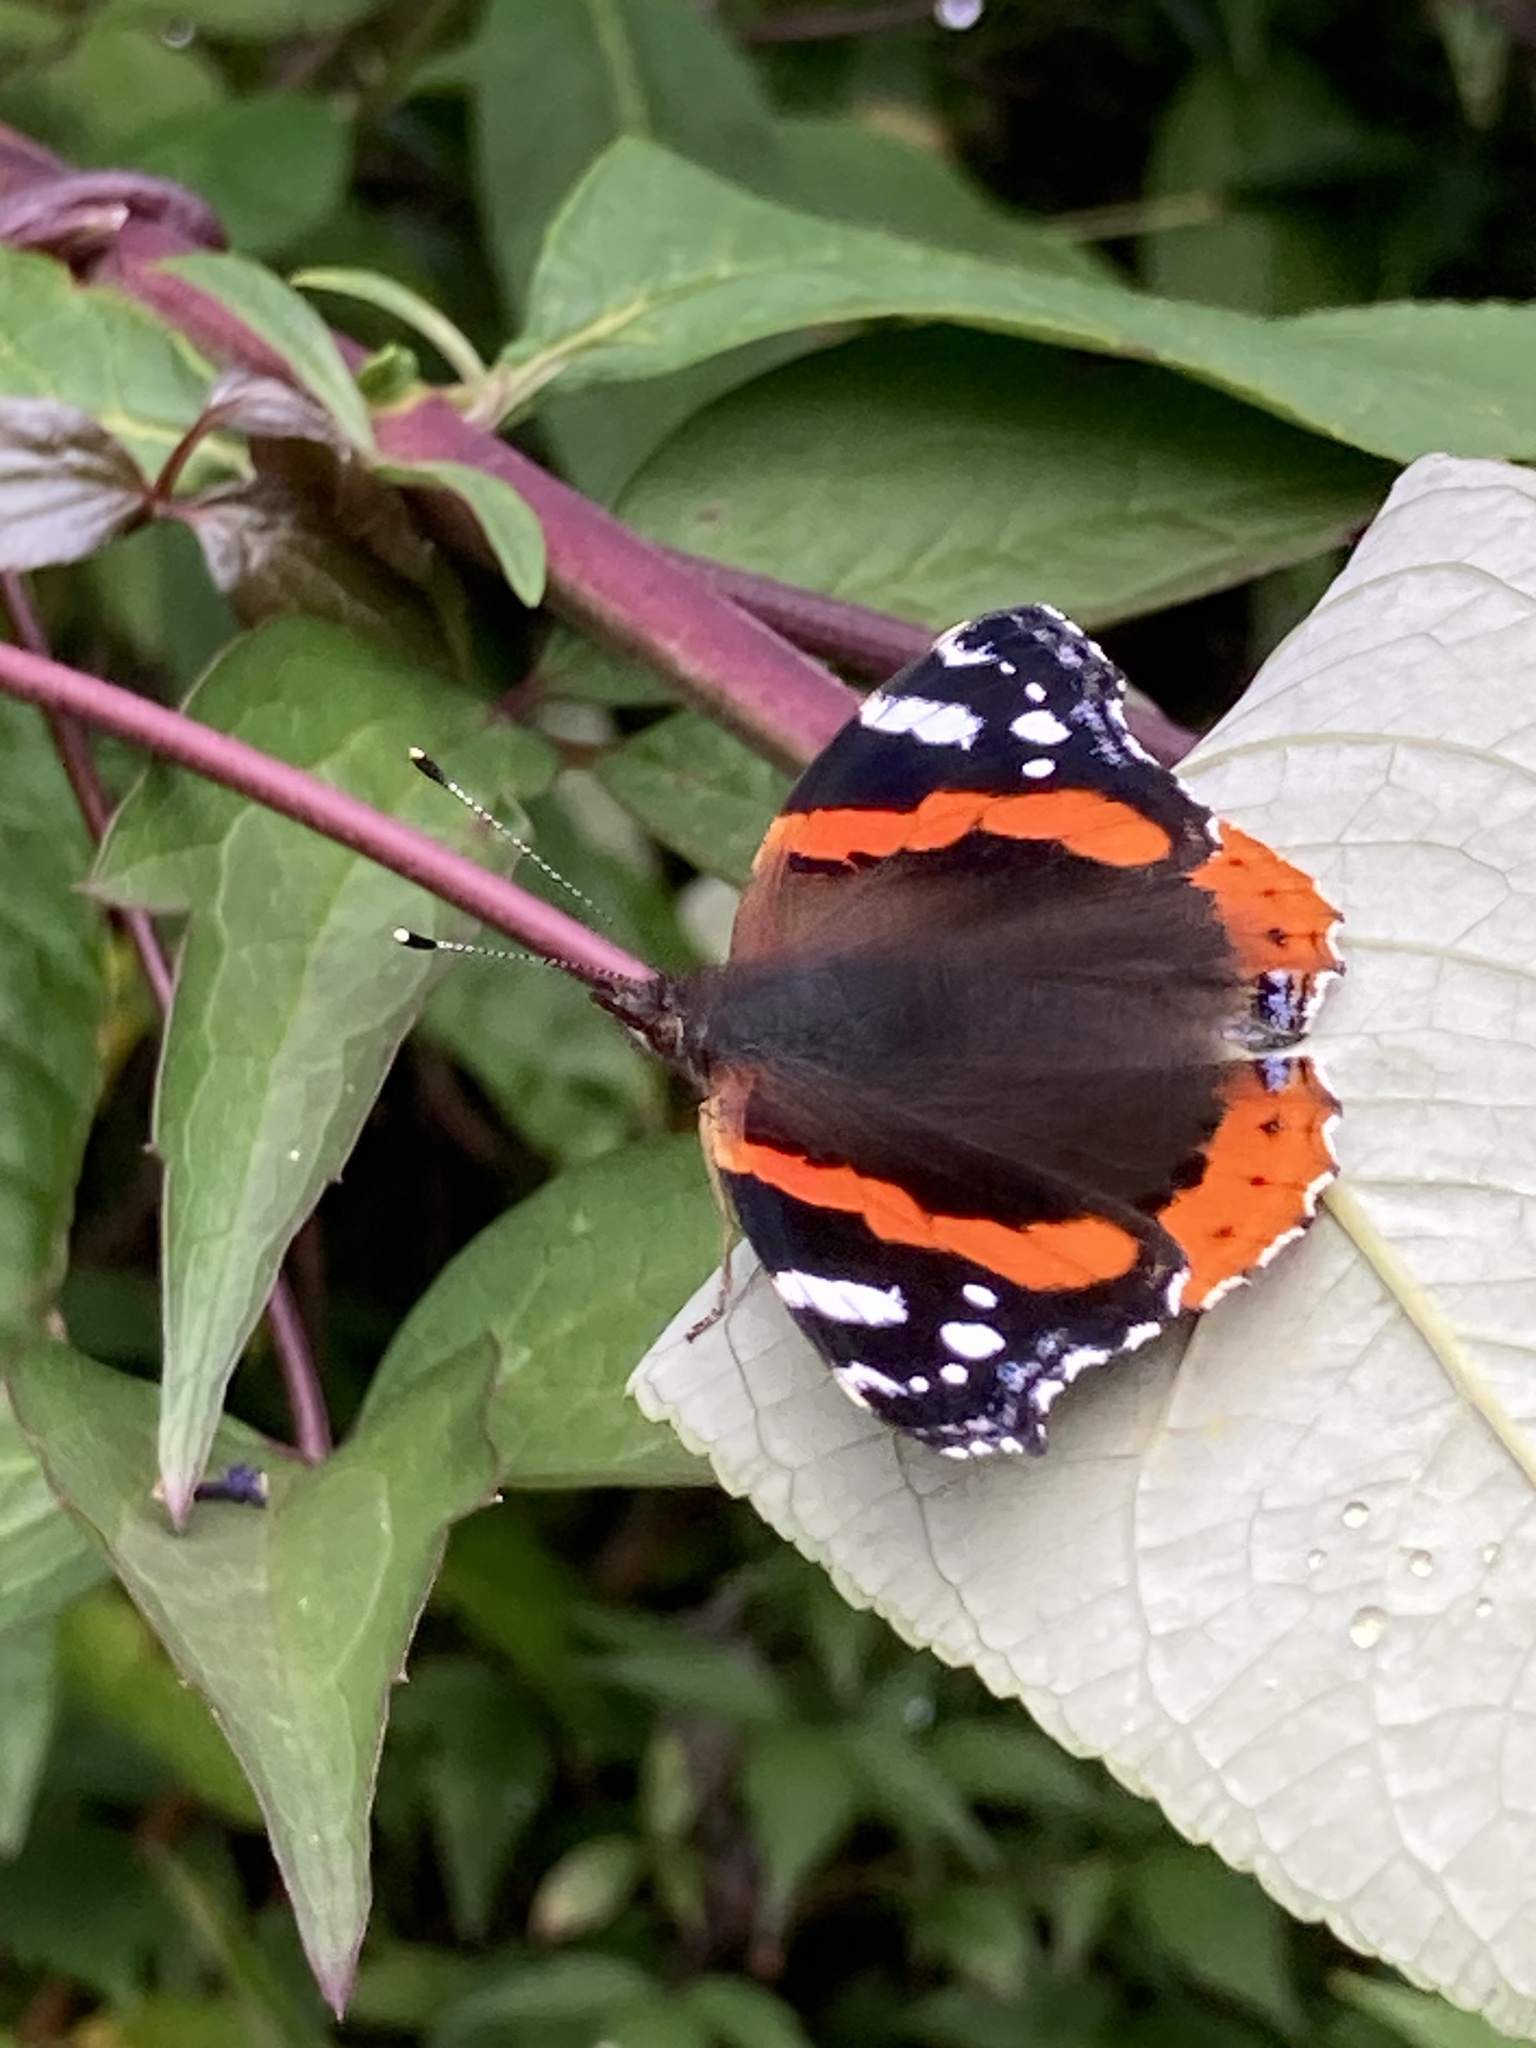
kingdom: Animalia
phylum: Arthropoda
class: Insecta
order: Lepidoptera
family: Nymphalidae
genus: Vanessa
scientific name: Vanessa atalanta
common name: Red admiral
